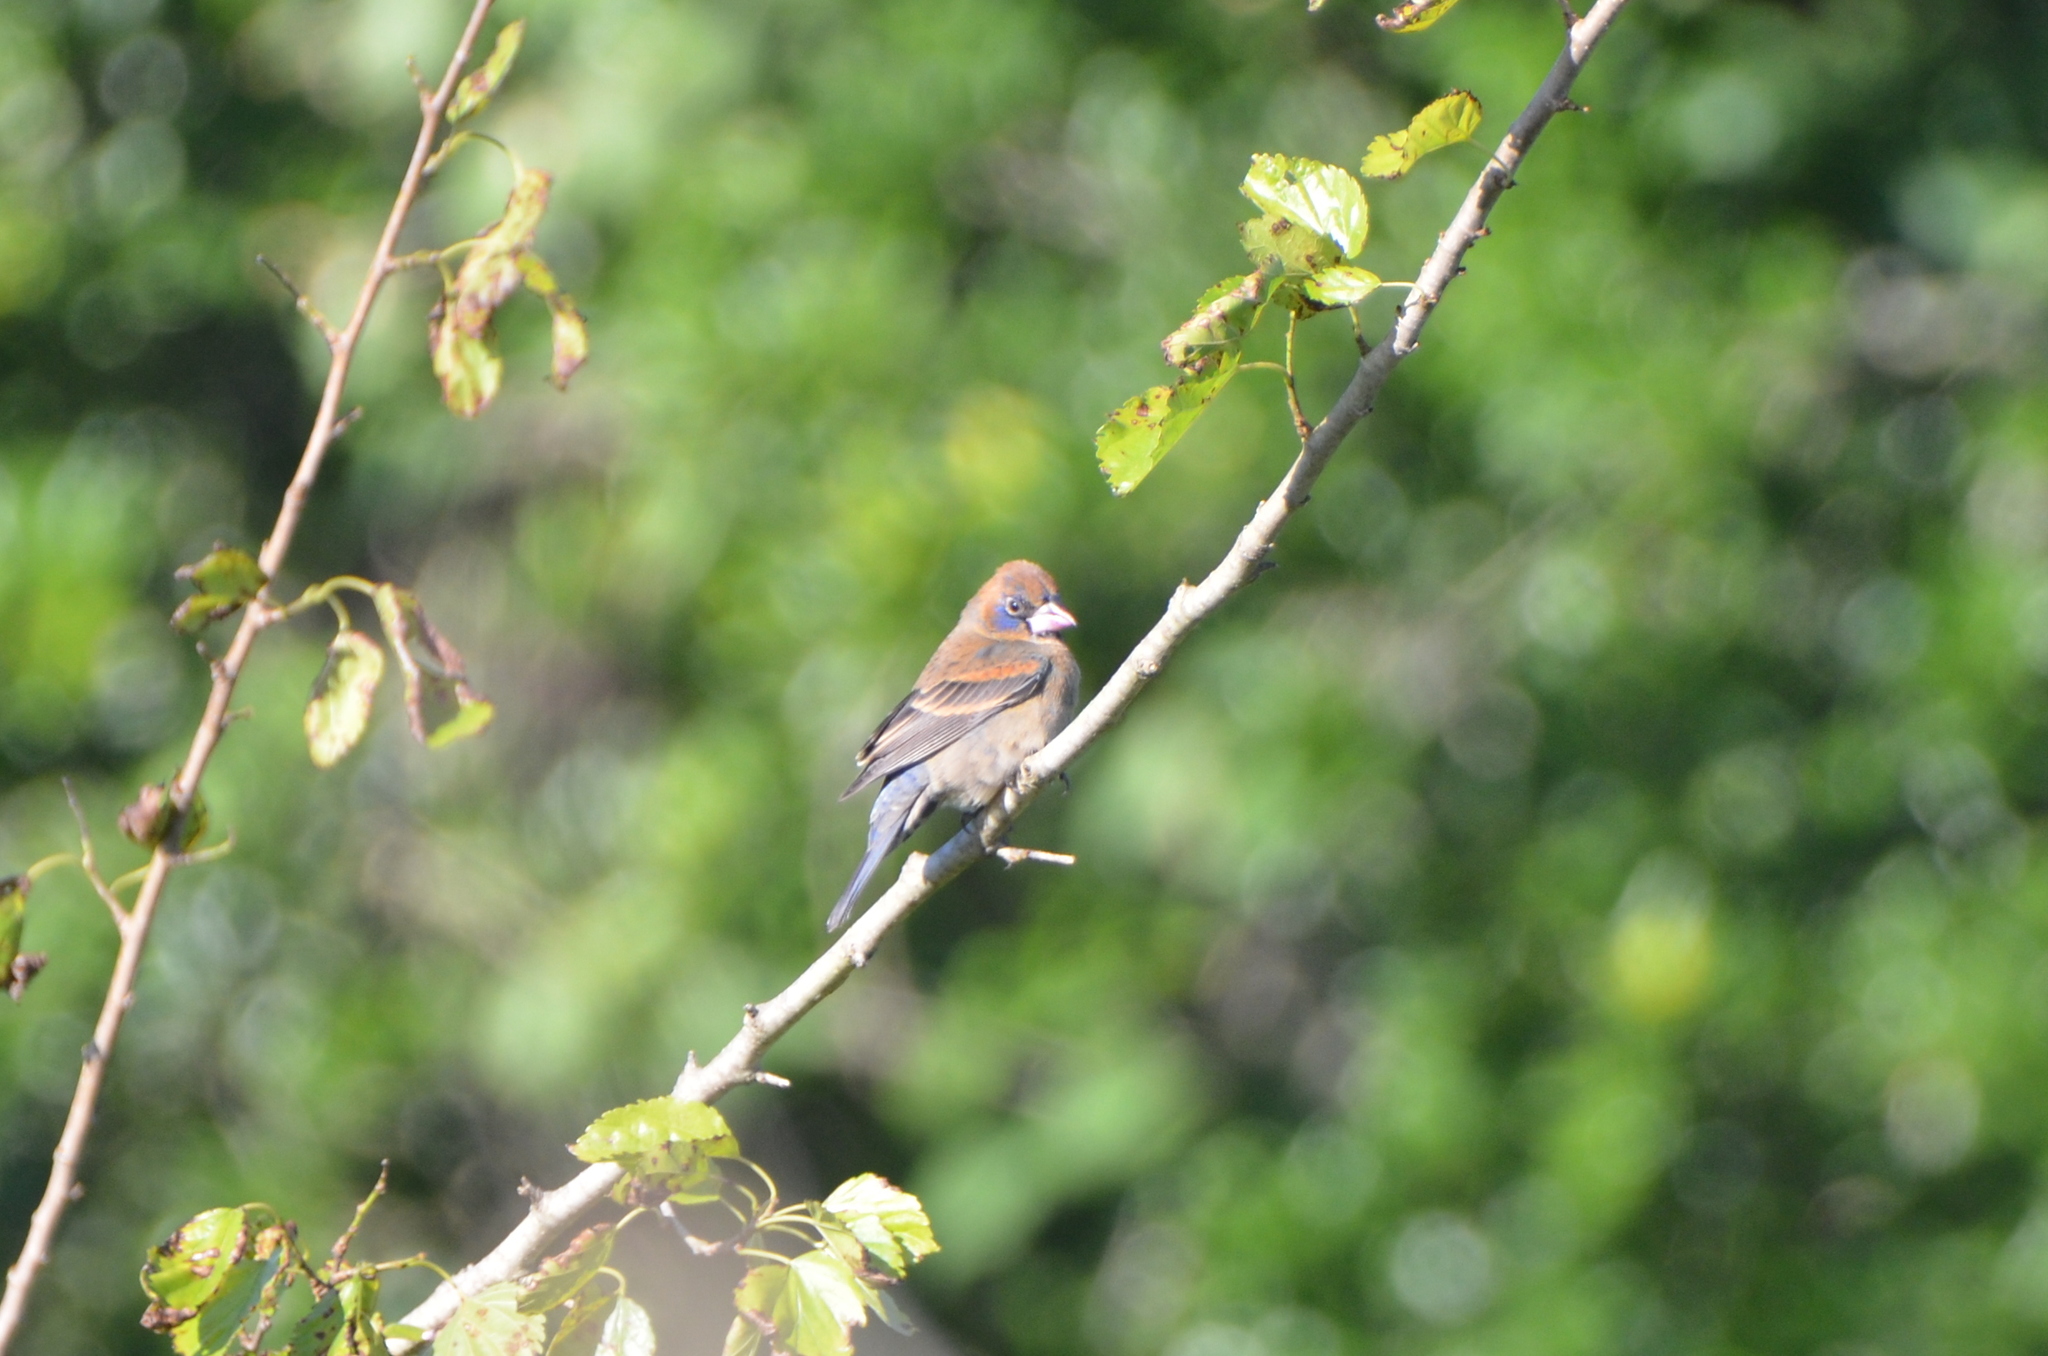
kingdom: Animalia
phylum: Chordata
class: Aves
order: Passeriformes
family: Cardinalidae
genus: Passerina
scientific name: Passerina caerulea
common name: Blue grosbeak
